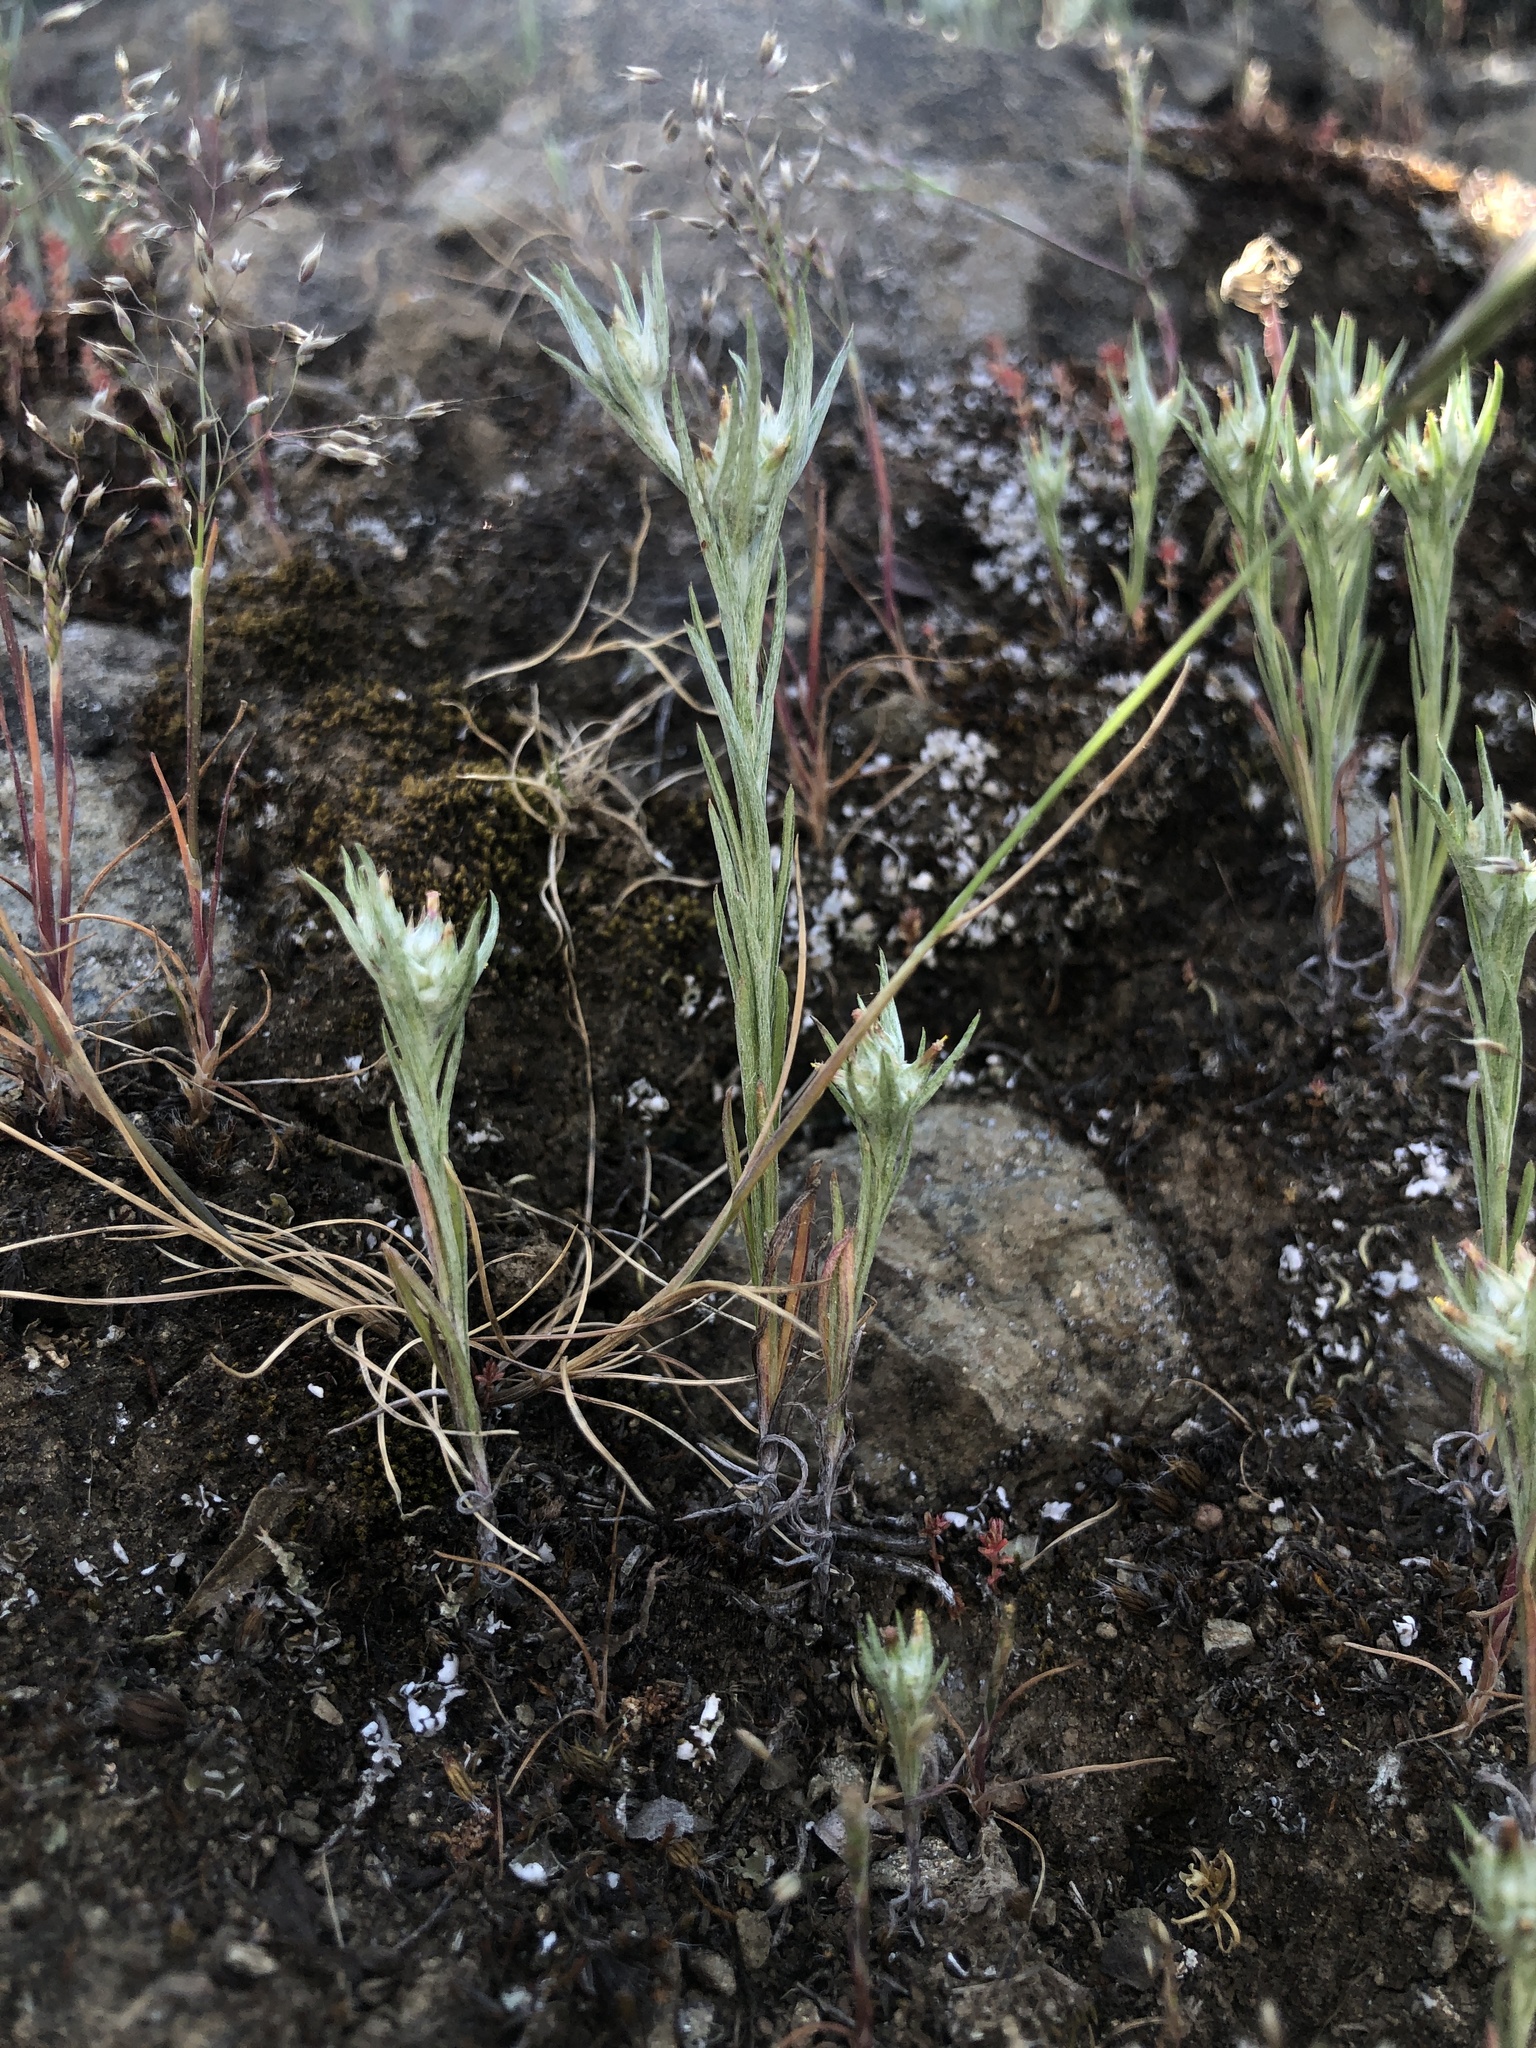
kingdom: Plantae
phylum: Tracheophyta
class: Magnoliopsida
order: Asterales
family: Asteraceae
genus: Logfia
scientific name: Logfia gallica
